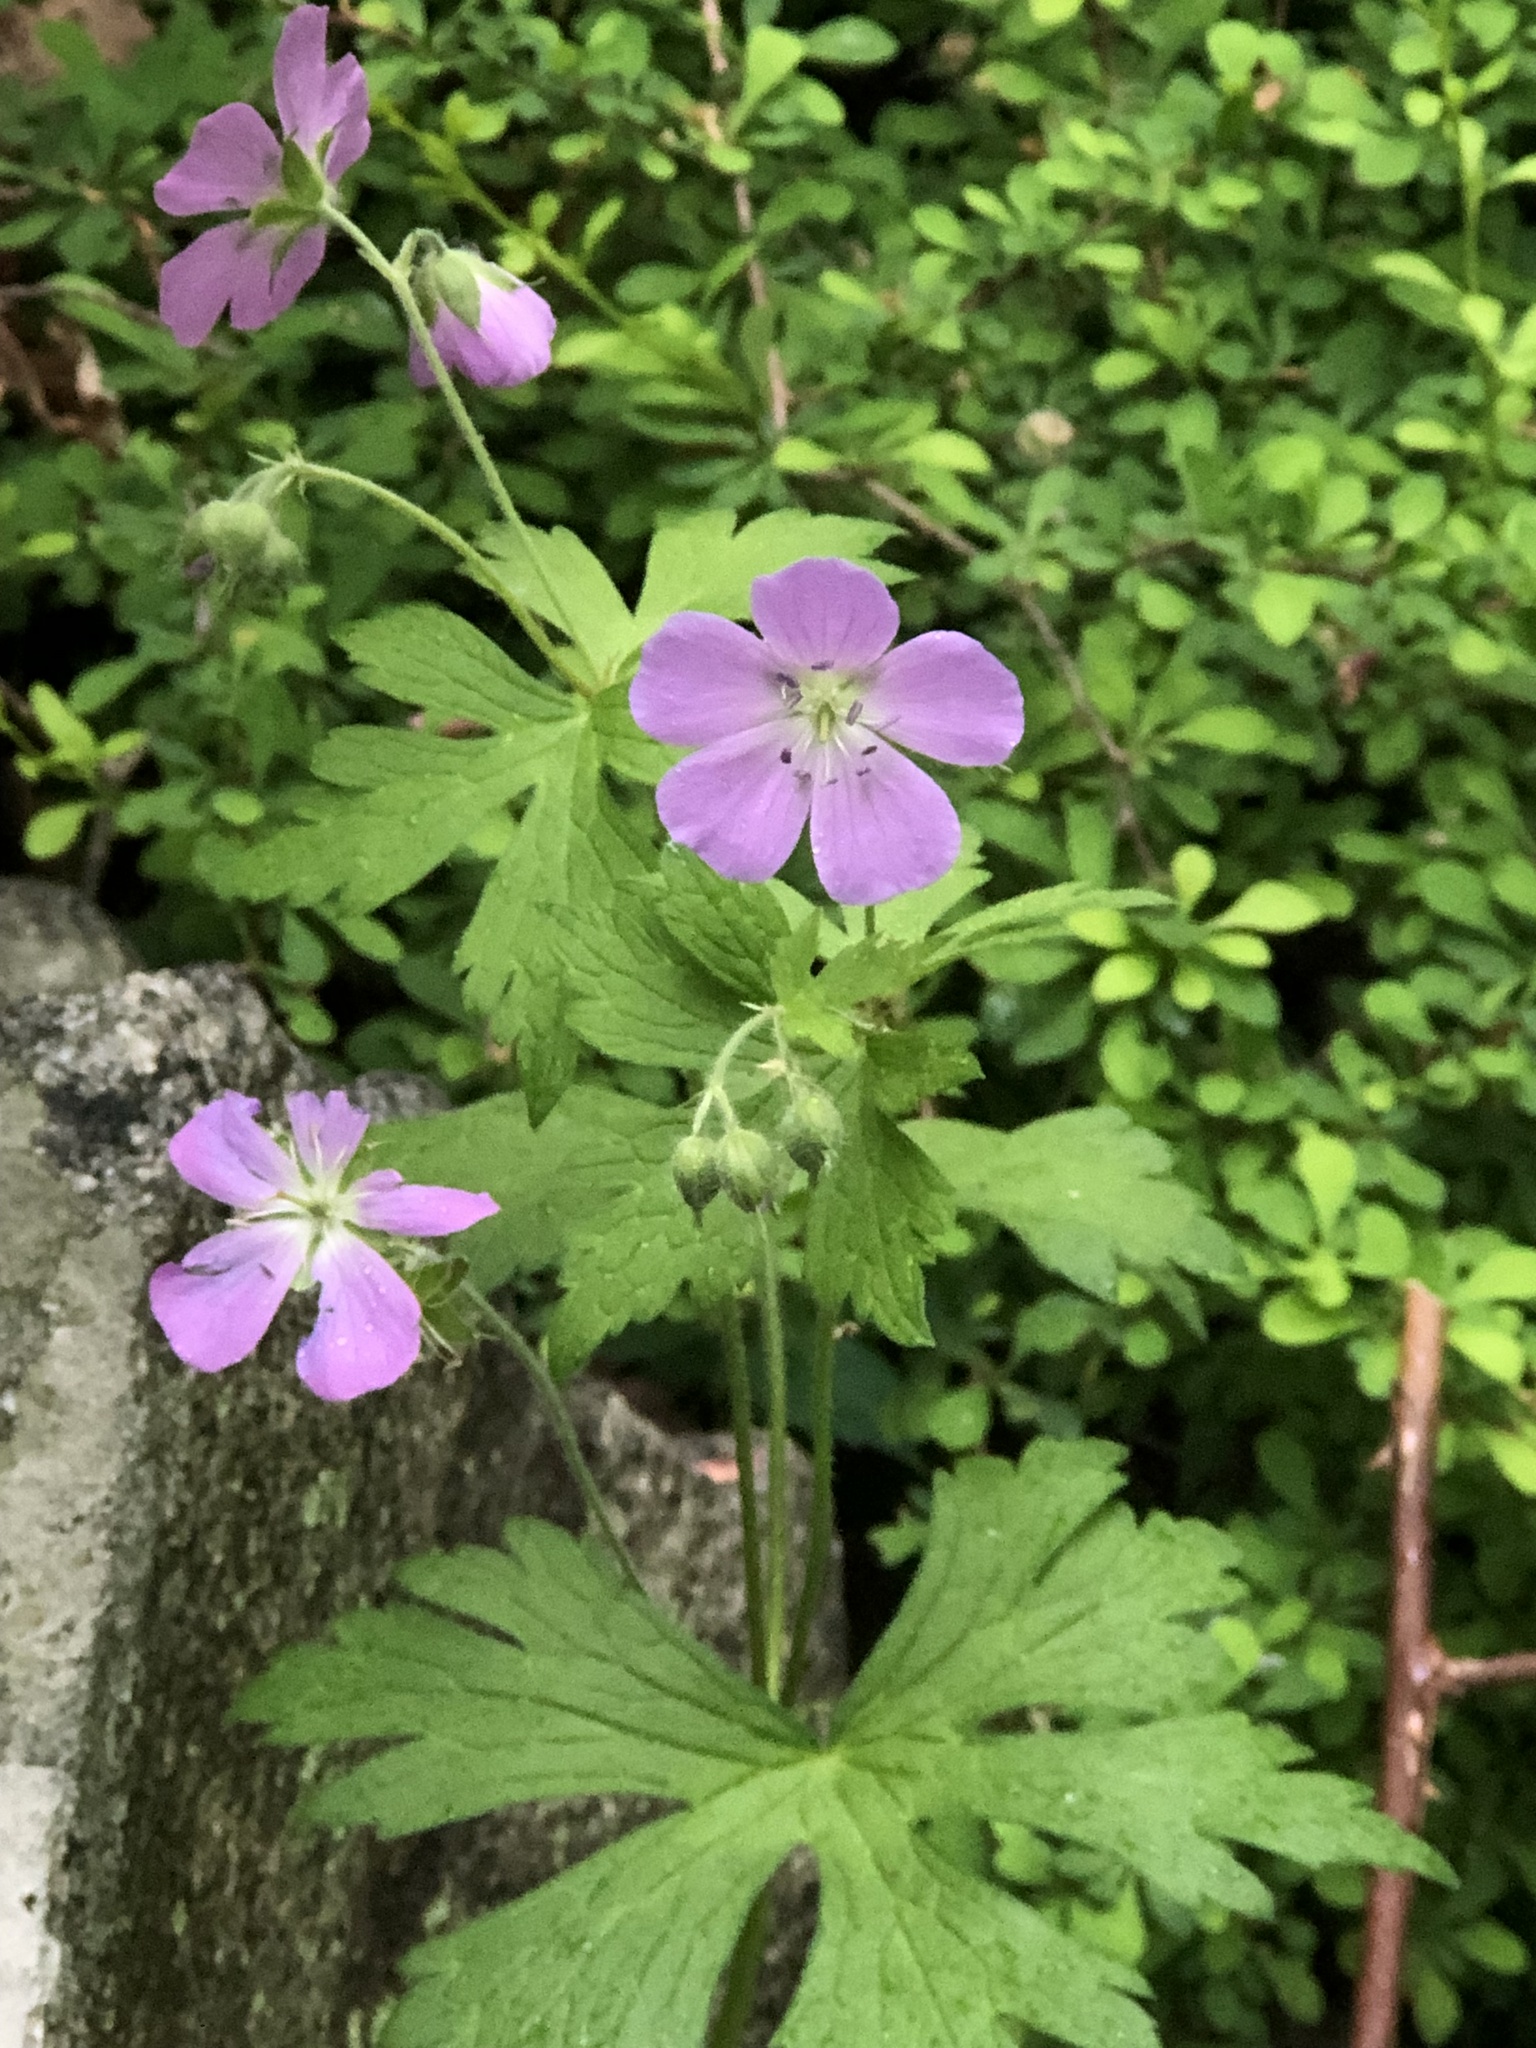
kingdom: Plantae
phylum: Tracheophyta
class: Magnoliopsida
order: Geraniales
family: Geraniaceae
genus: Geranium
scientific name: Geranium maculatum
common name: Spotted geranium
